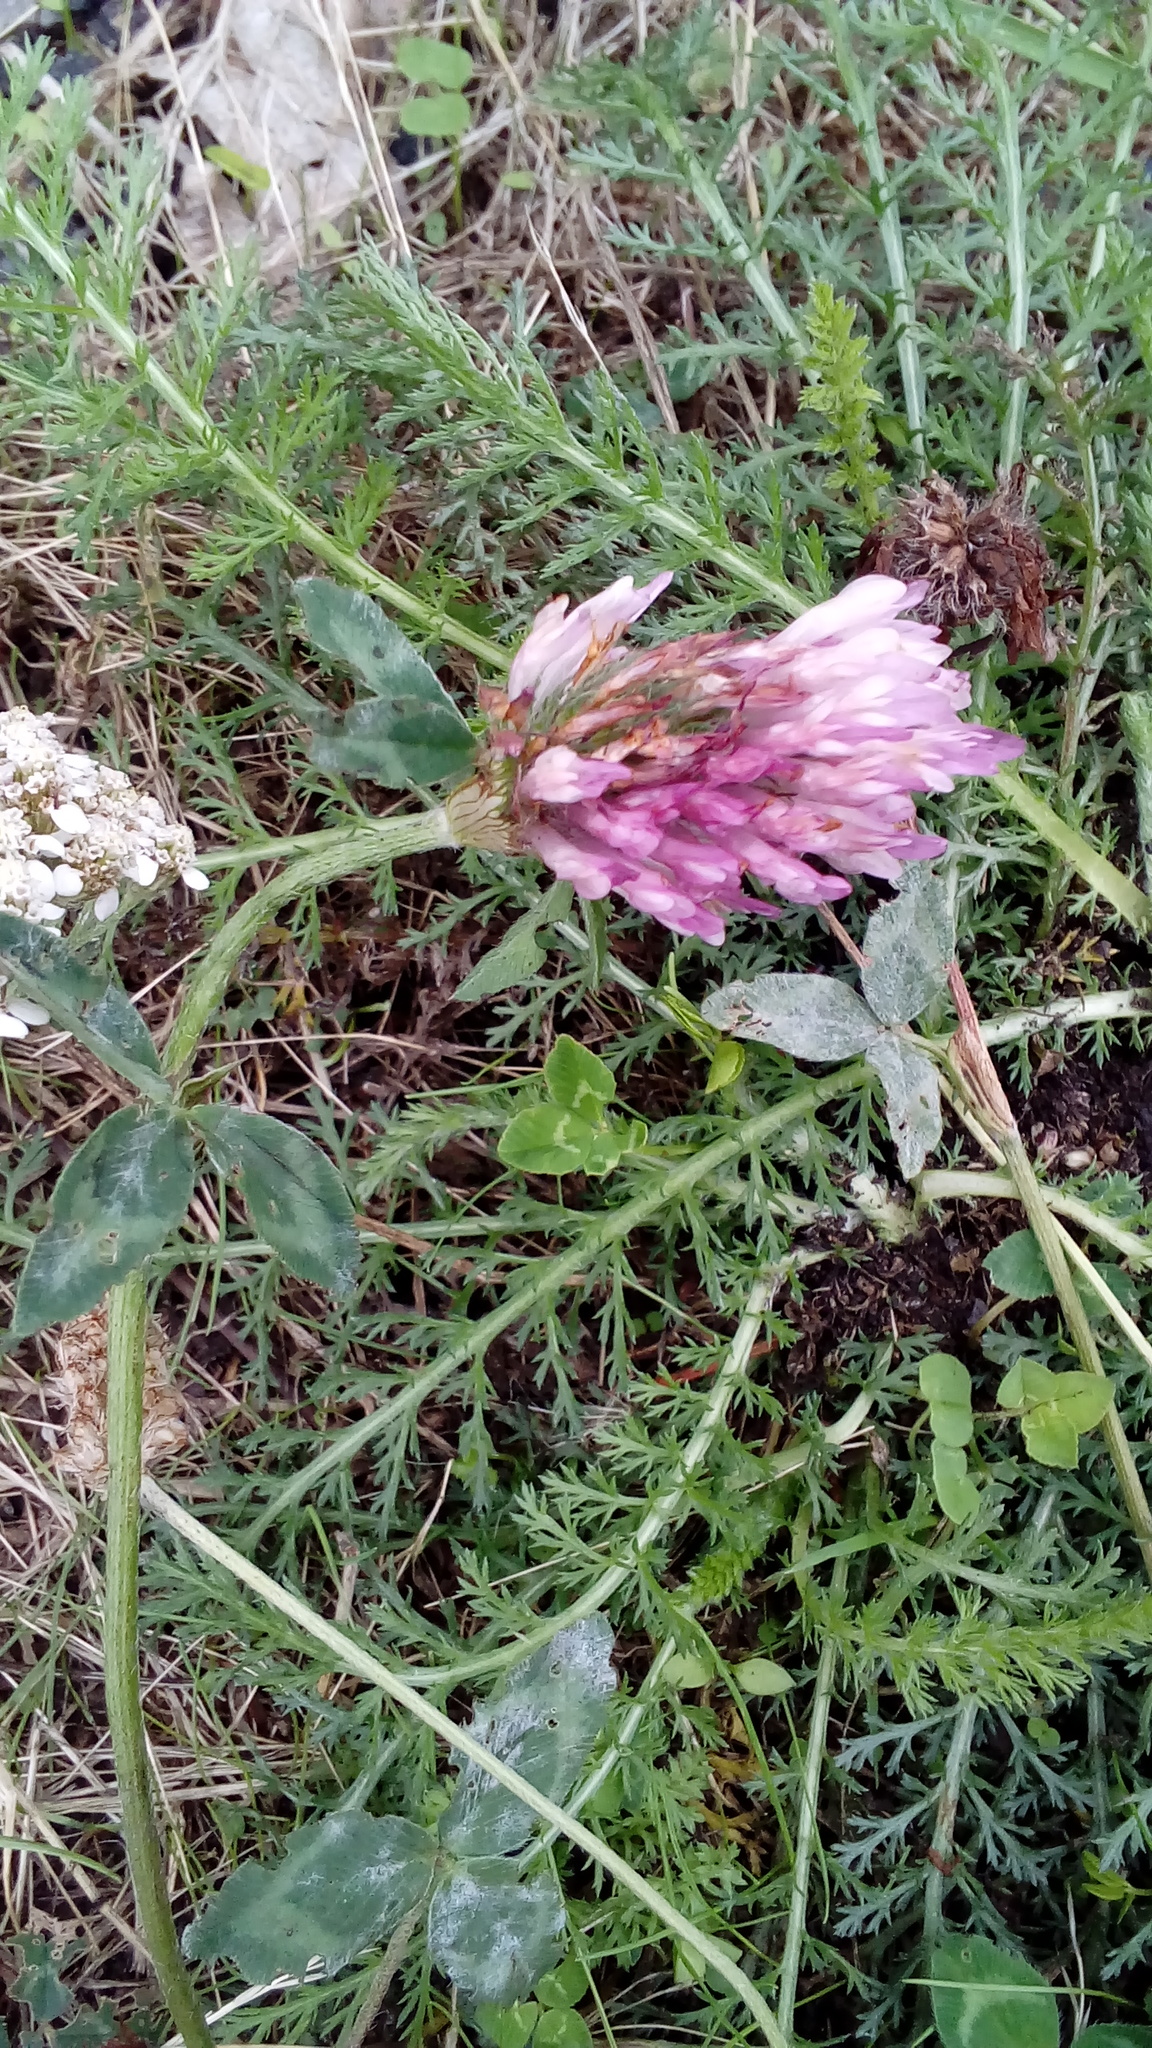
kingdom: Plantae
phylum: Tracheophyta
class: Magnoliopsida
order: Fabales
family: Fabaceae
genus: Trifolium
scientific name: Trifolium pratense
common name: Red clover
